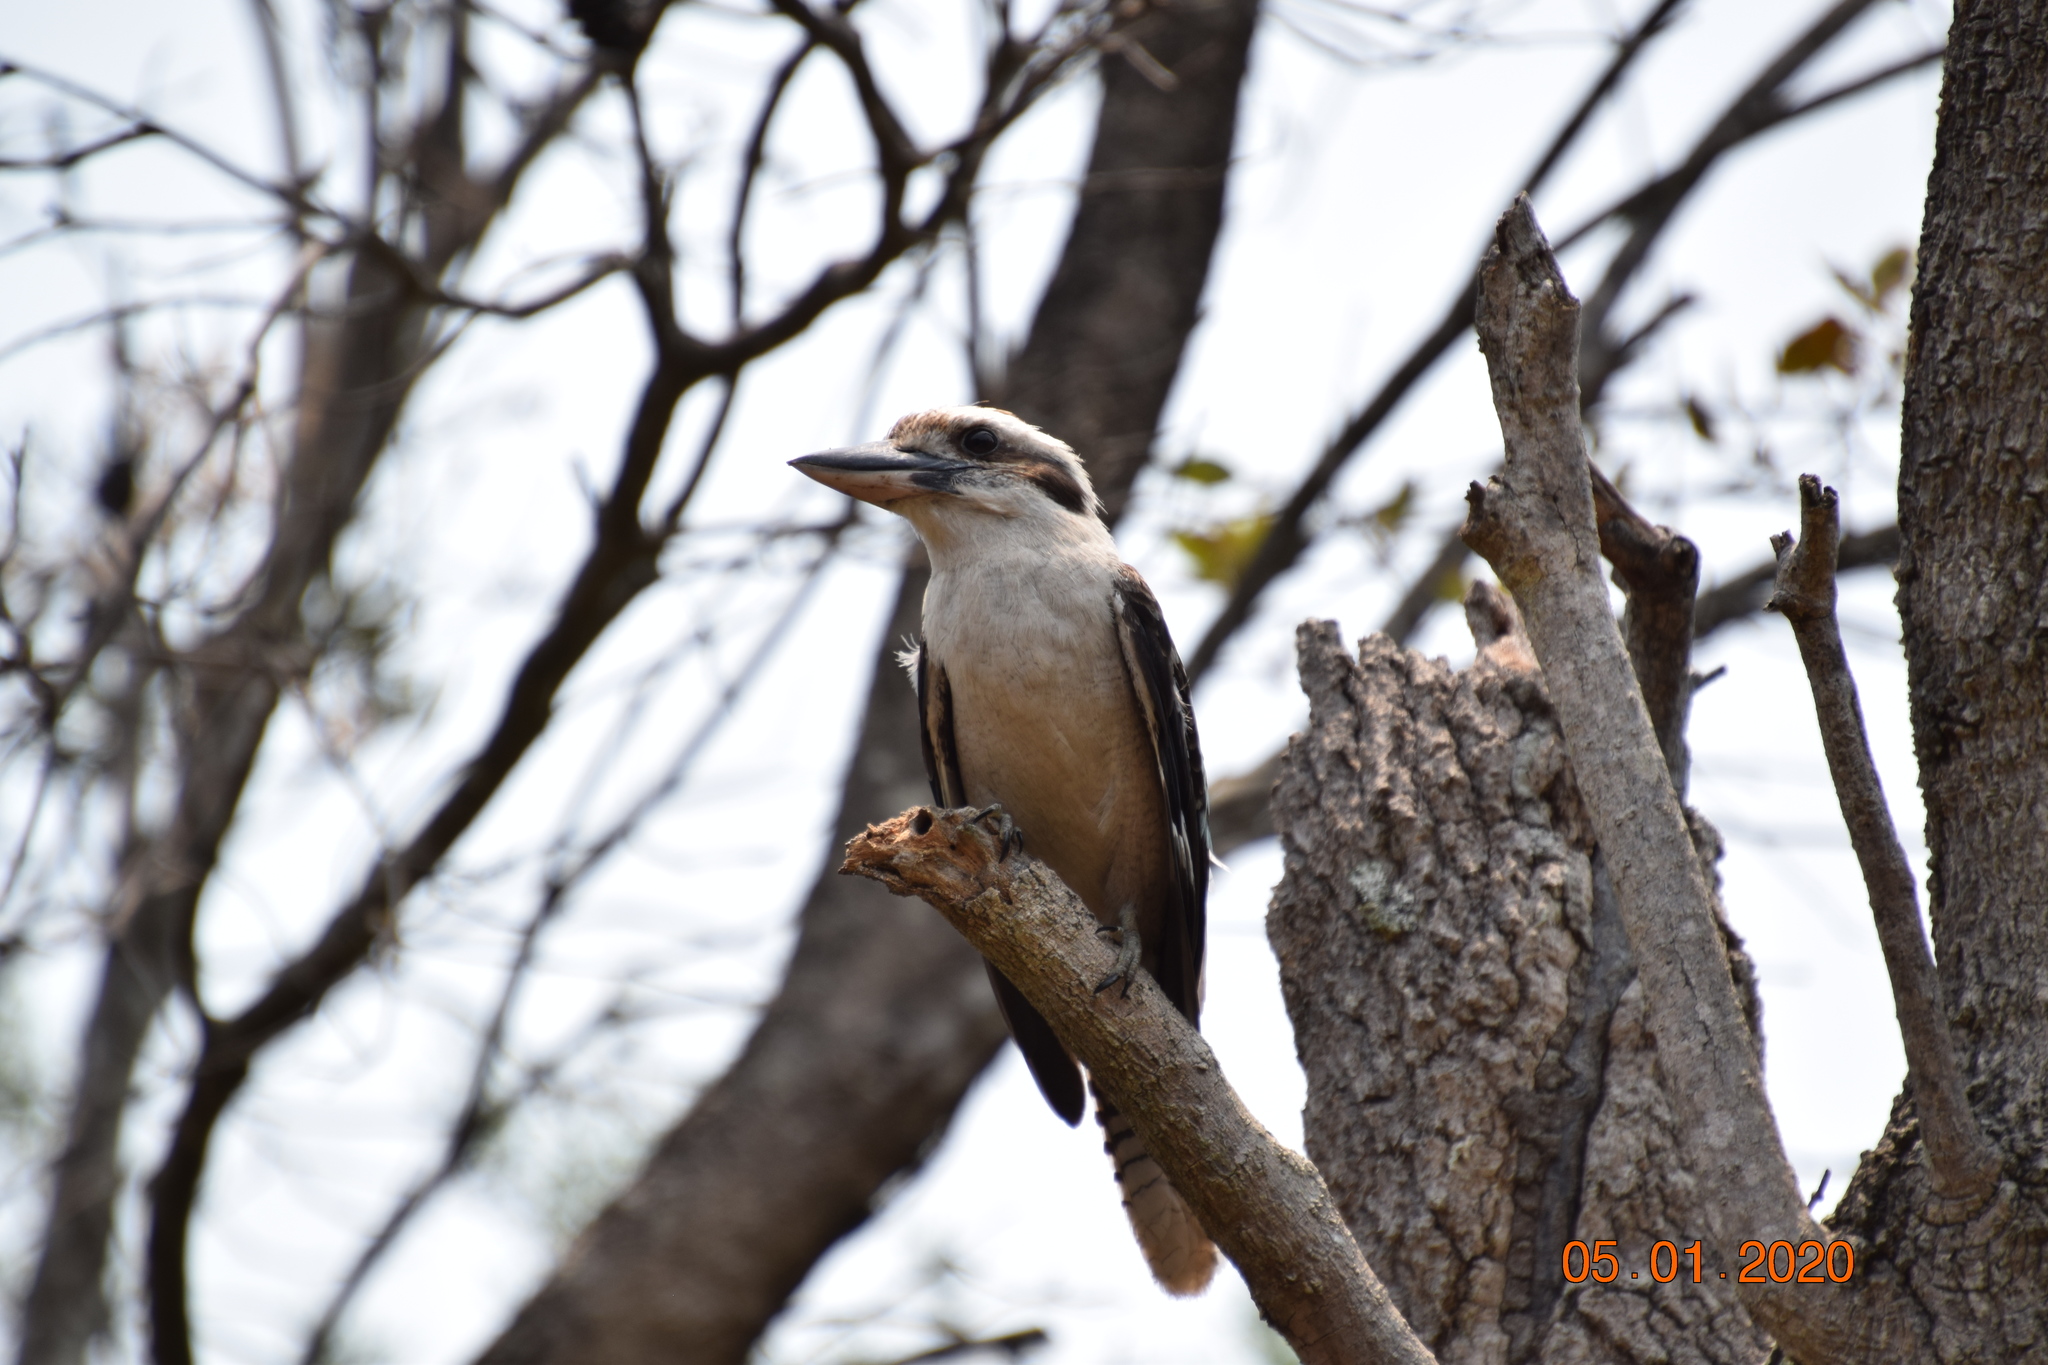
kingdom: Animalia
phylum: Chordata
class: Aves
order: Coraciiformes
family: Alcedinidae
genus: Dacelo
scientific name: Dacelo novaeguineae
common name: Laughing kookaburra
